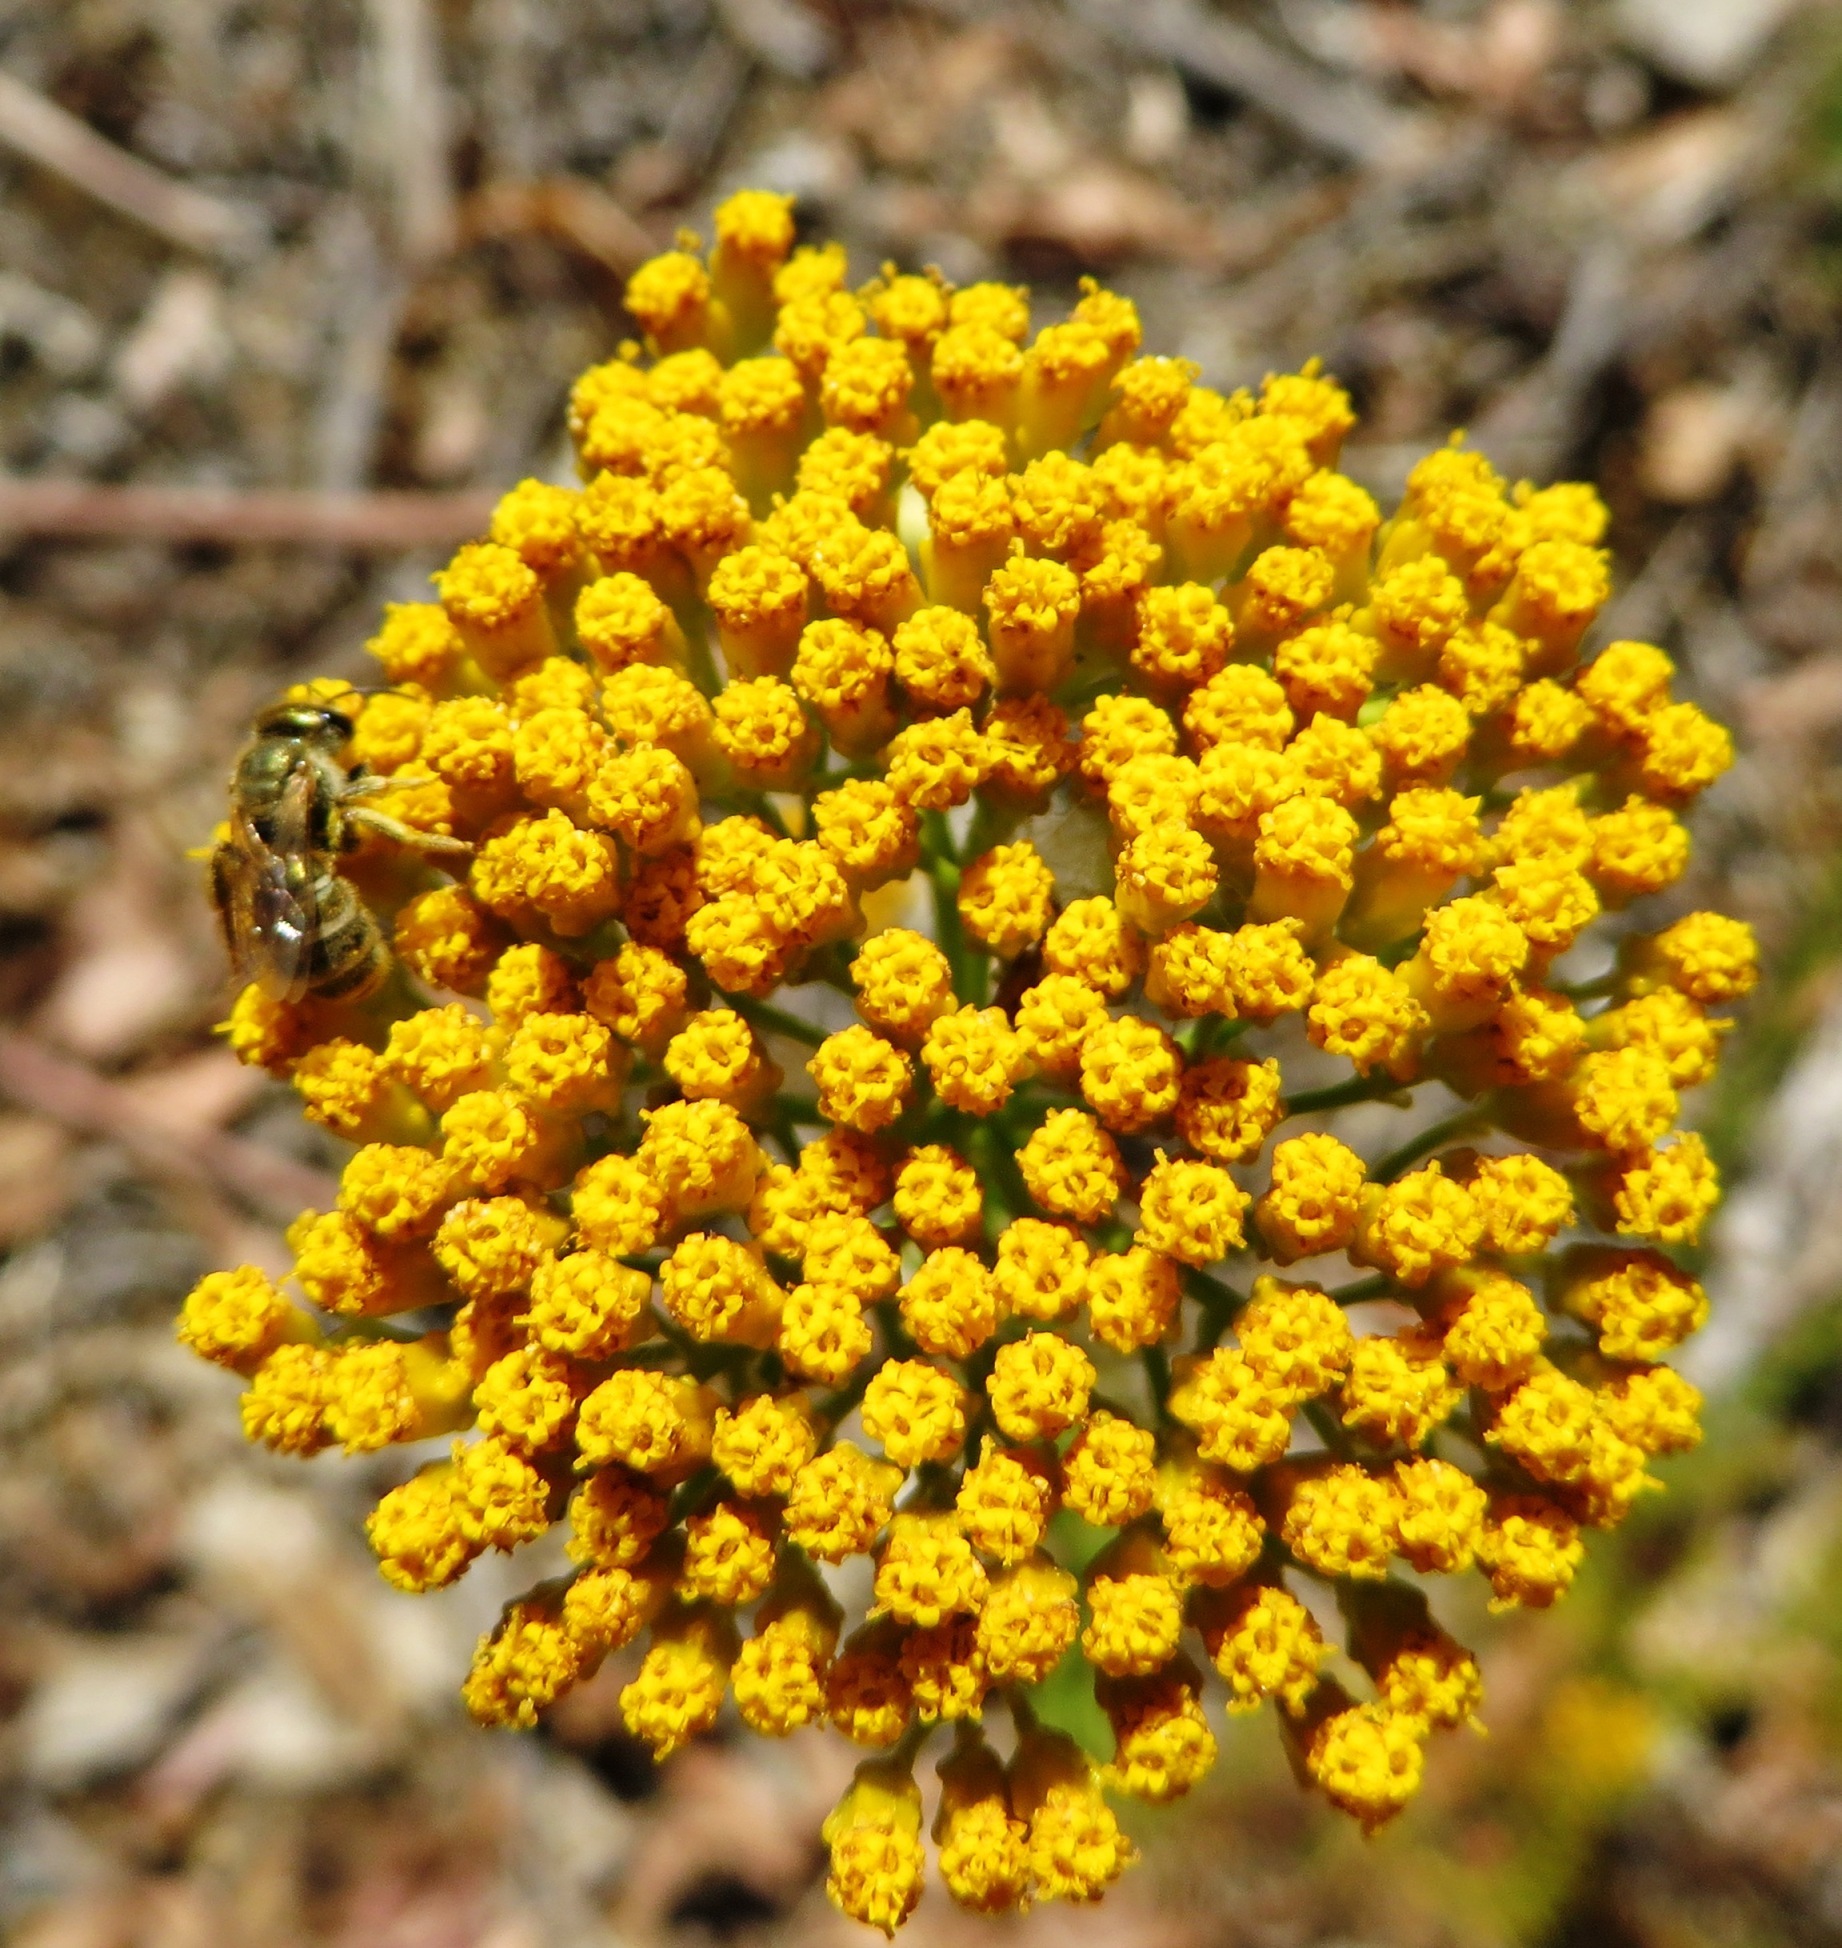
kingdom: Plantae
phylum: Tracheophyta
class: Magnoliopsida
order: Asterales
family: Asteraceae
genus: Athanasia
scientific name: Athanasia juncea
